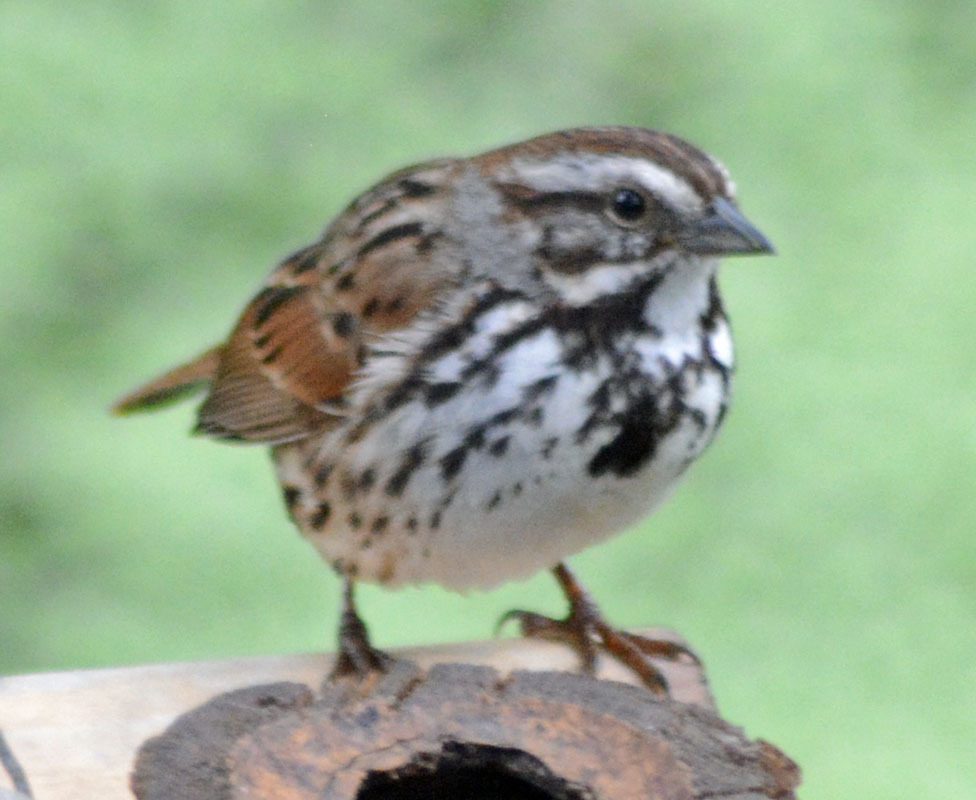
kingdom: Animalia
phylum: Chordata
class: Aves
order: Passeriformes
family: Passerellidae
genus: Melospiza
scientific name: Melospiza melodia
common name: Song sparrow
